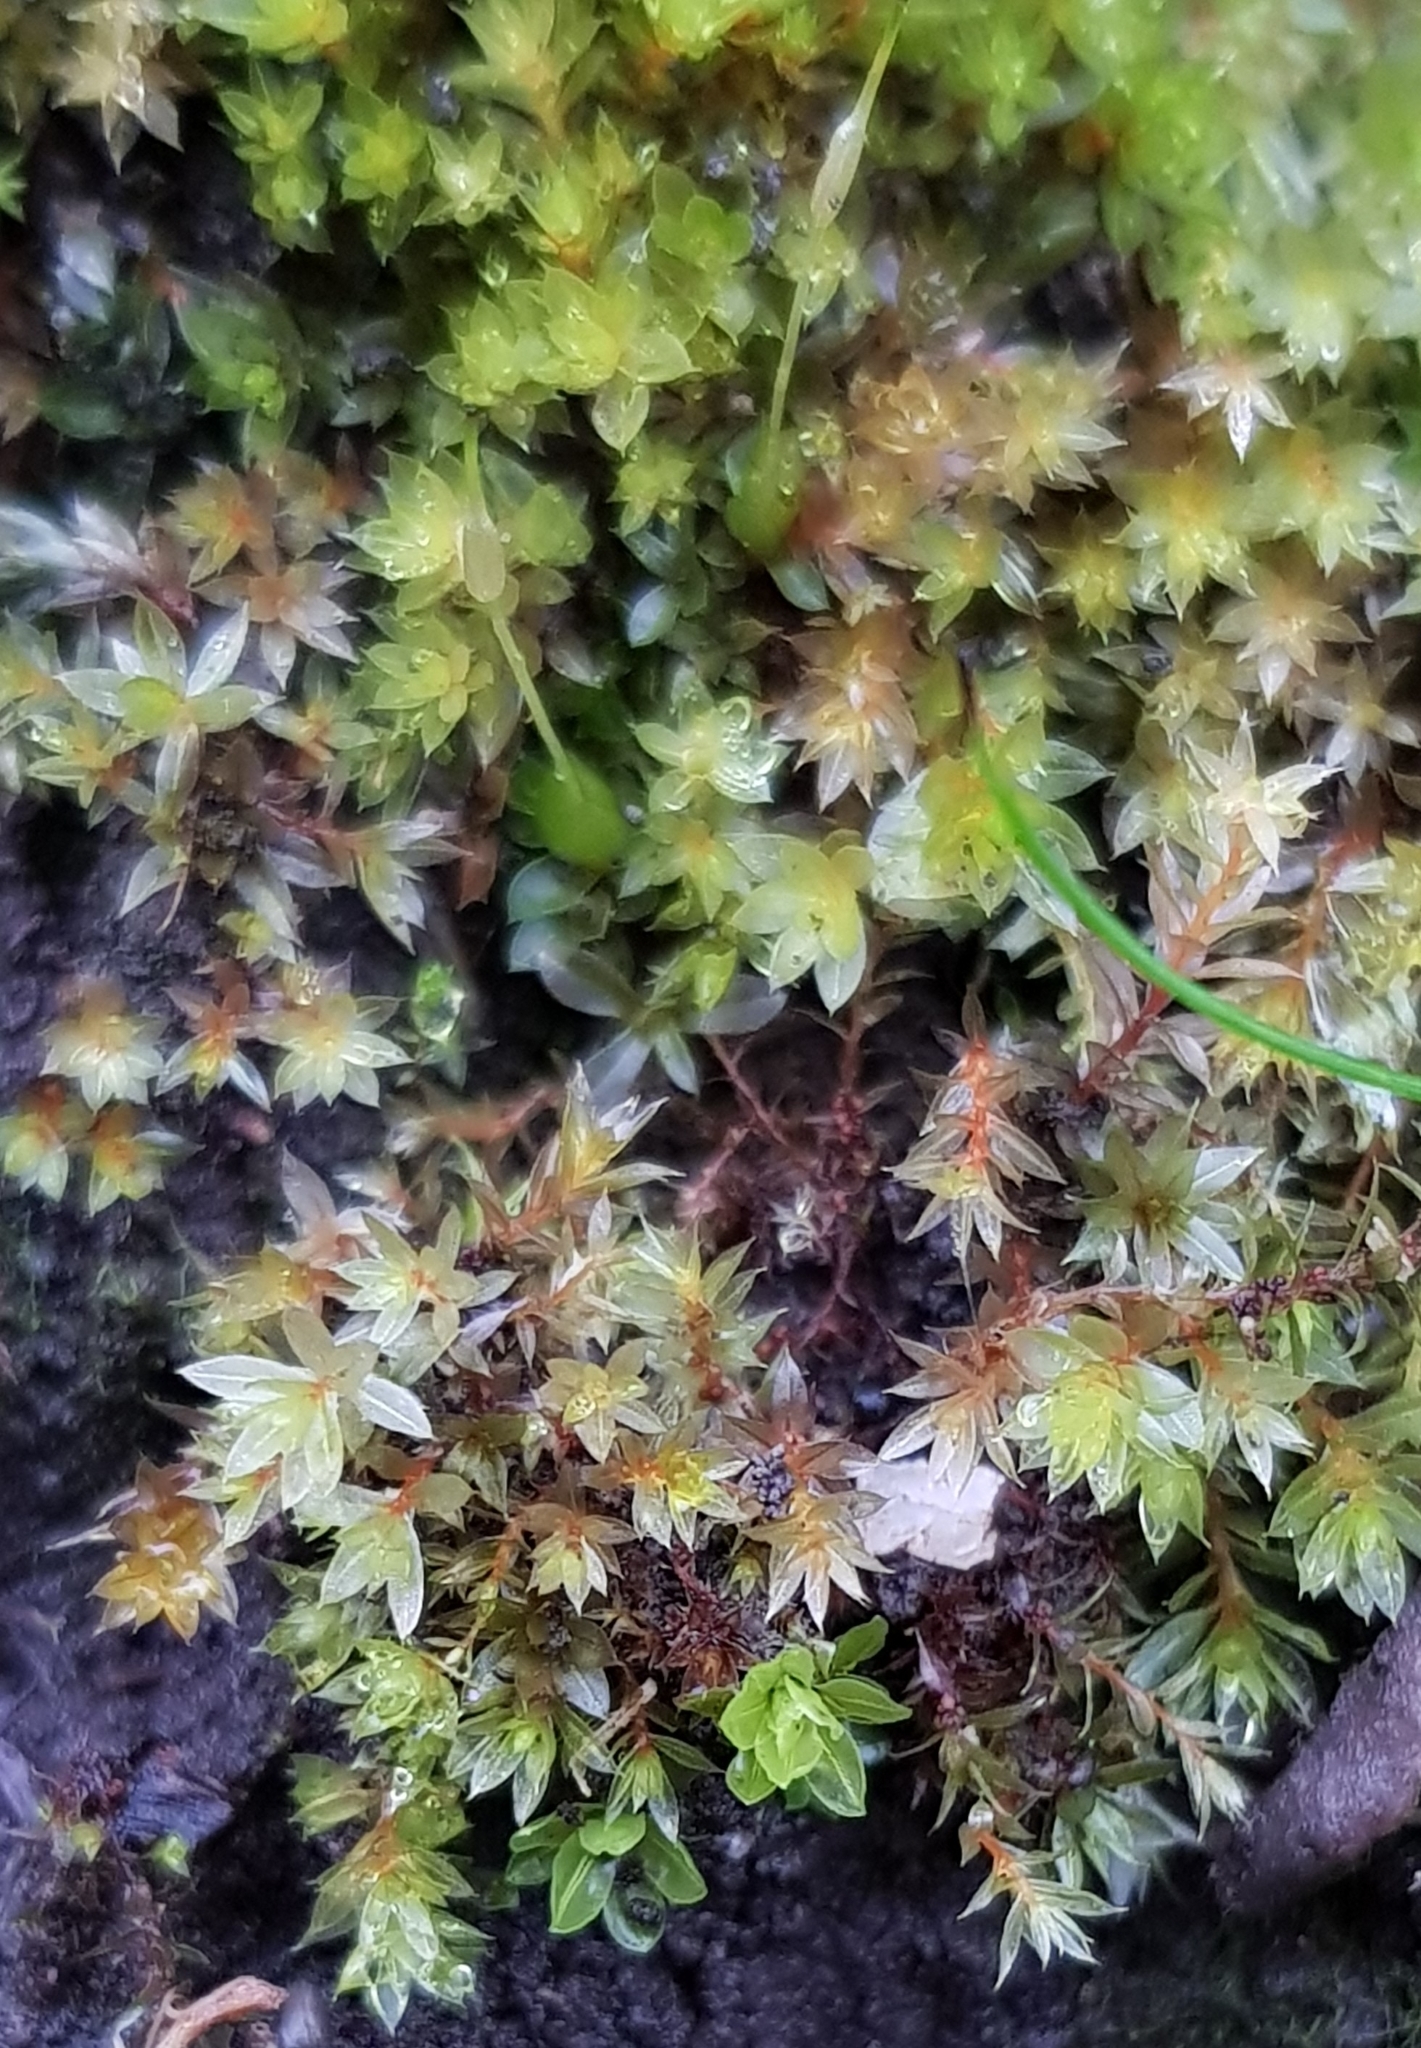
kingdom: Plantae
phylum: Bryophyta
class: Bryopsida
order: Bryales
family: Bryaceae
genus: Rosulabryum
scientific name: Rosulabryum rubens
